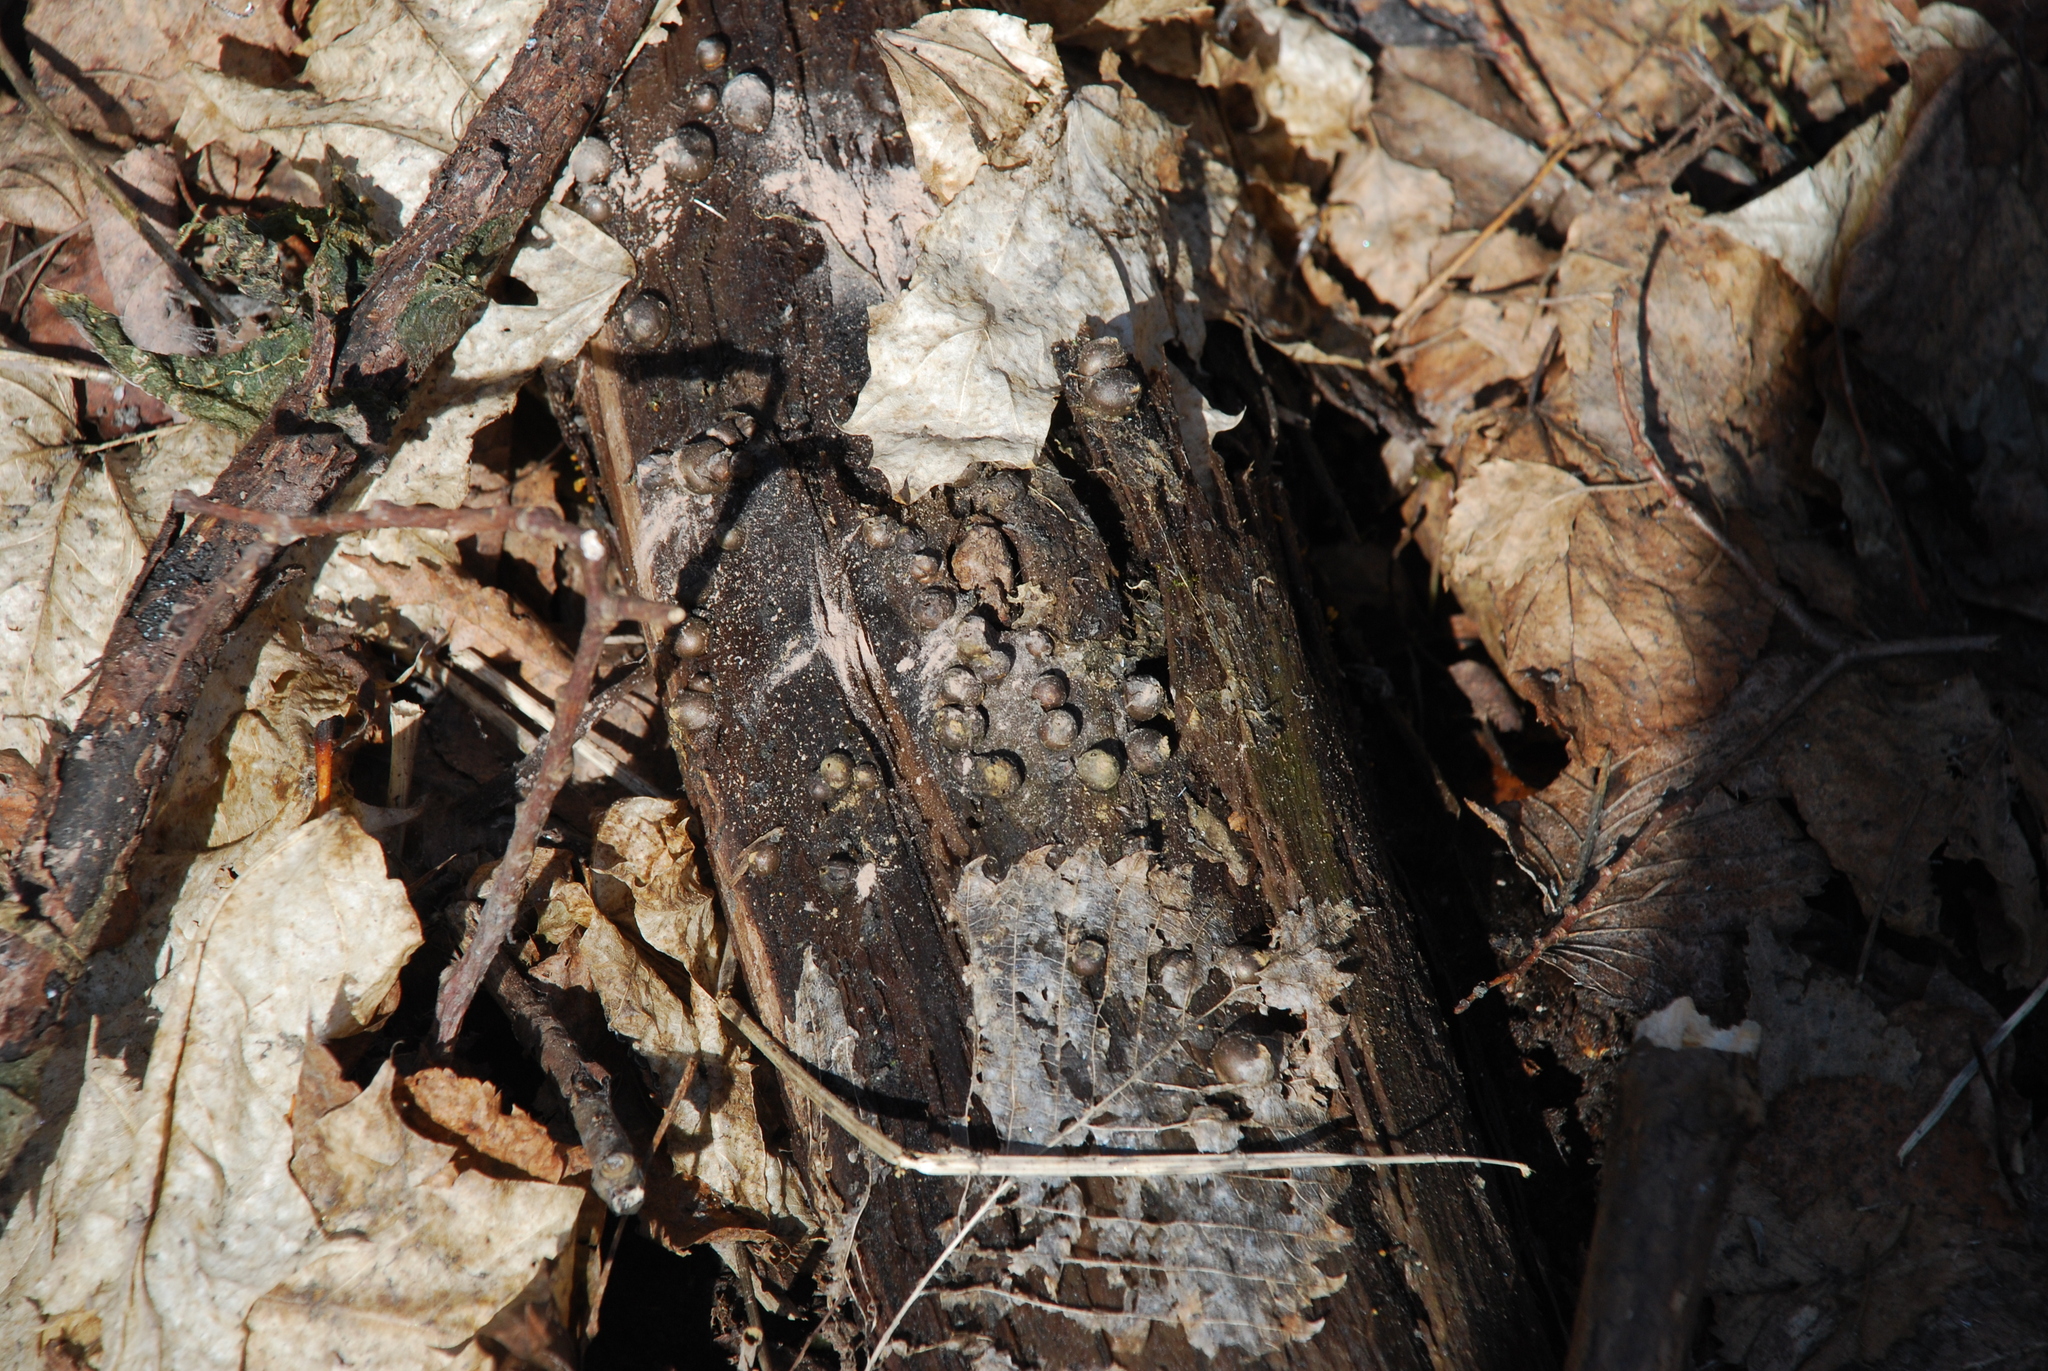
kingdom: Protozoa
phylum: Mycetozoa
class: Myxomycetes
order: Cribrariales
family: Tubiferaceae
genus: Lycogala
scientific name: Lycogala
